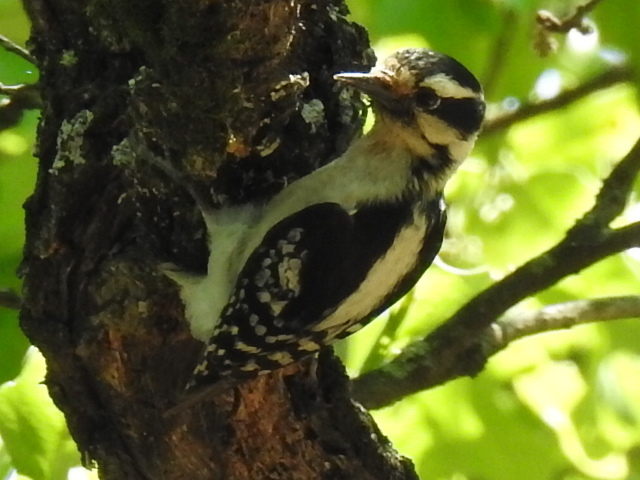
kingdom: Animalia
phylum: Chordata
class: Aves
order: Piciformes
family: Picidae
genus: Dryobates
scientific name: Dryobates pubescens
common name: Downy woodpecker
